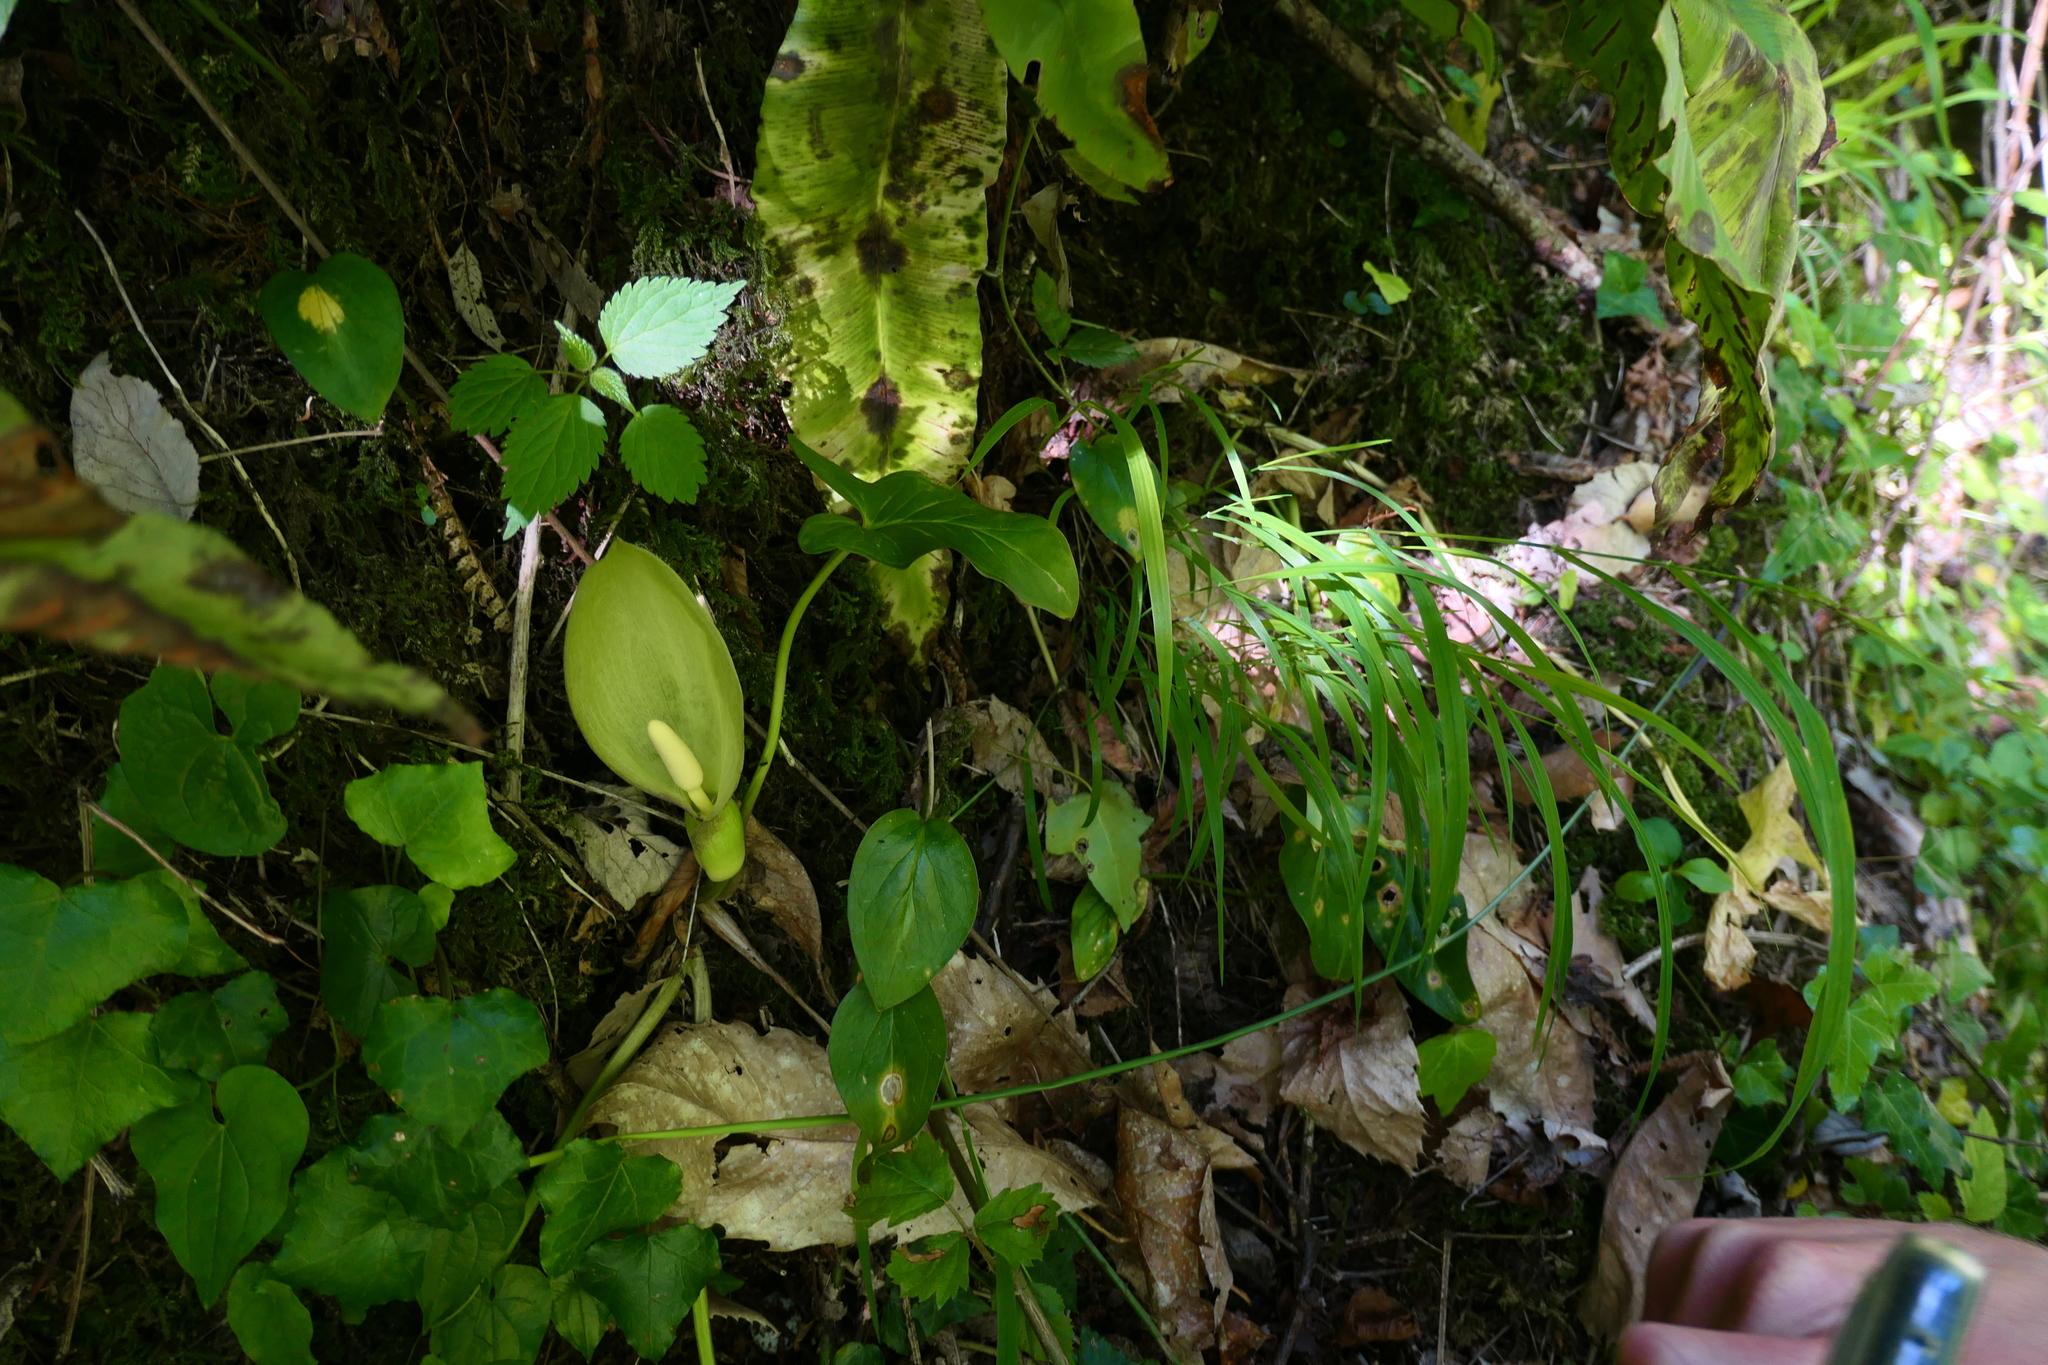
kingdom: Plantae
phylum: Tracheophyta
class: Liliopsida
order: Alismatales
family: Araceae
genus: Arum
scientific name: Arum italicum
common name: Italian lords-and-ladies
